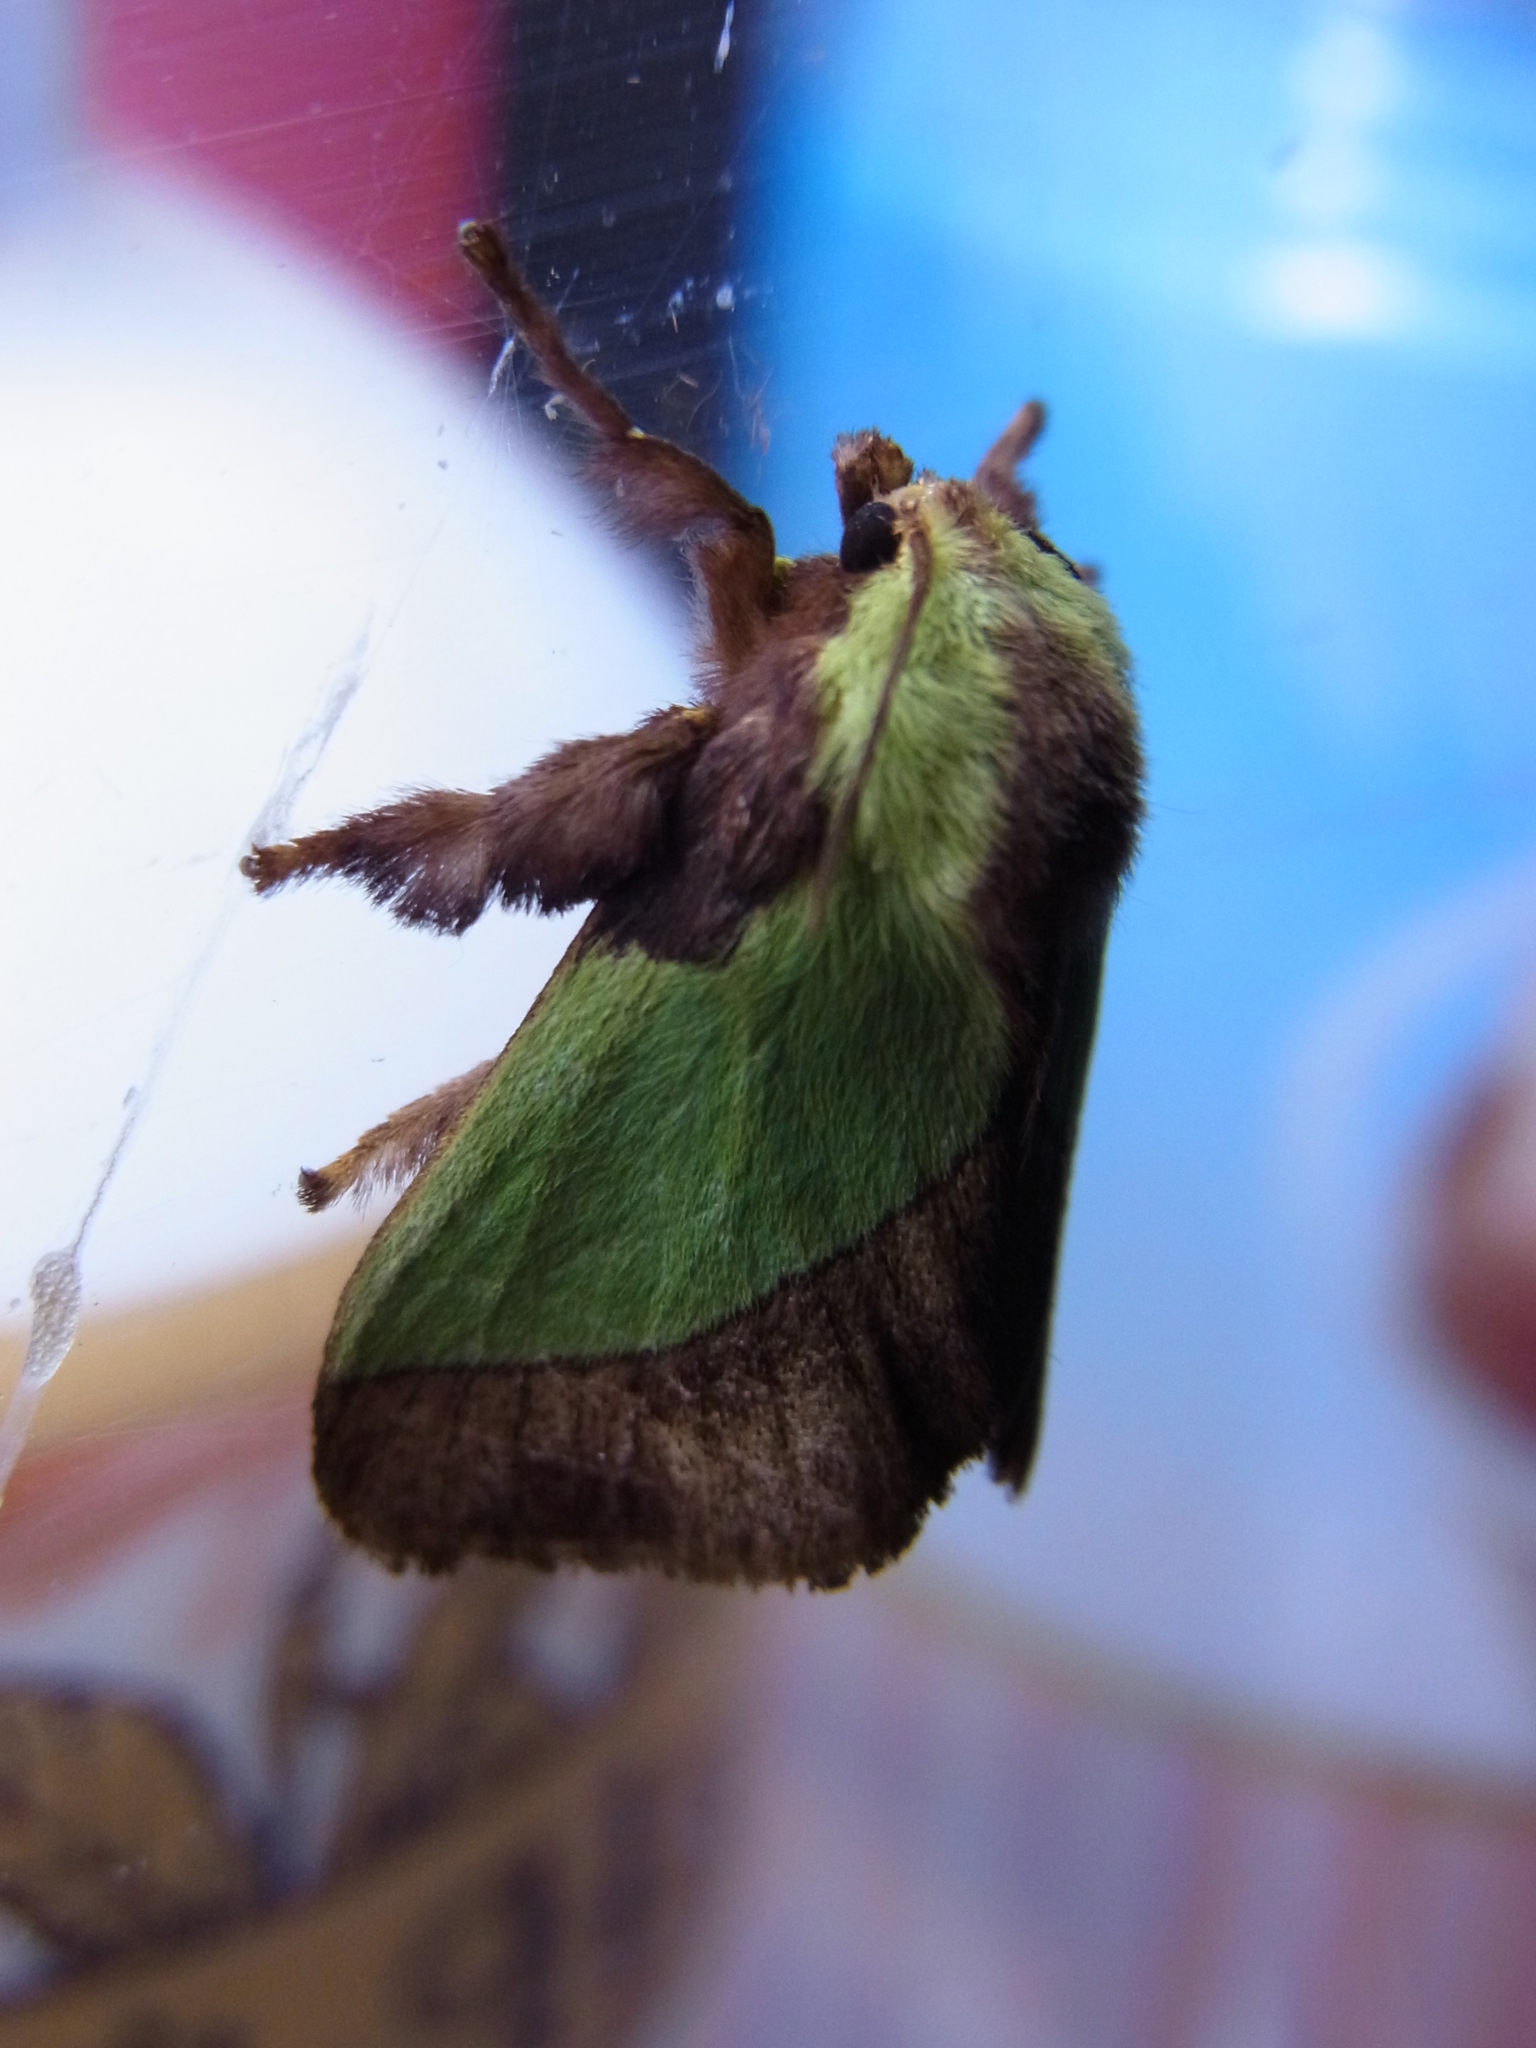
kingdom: Animalia
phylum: Arthropoda
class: Insecta
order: Lepidoptera
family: Limacodidae
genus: Parasa
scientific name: Parasa lepida
